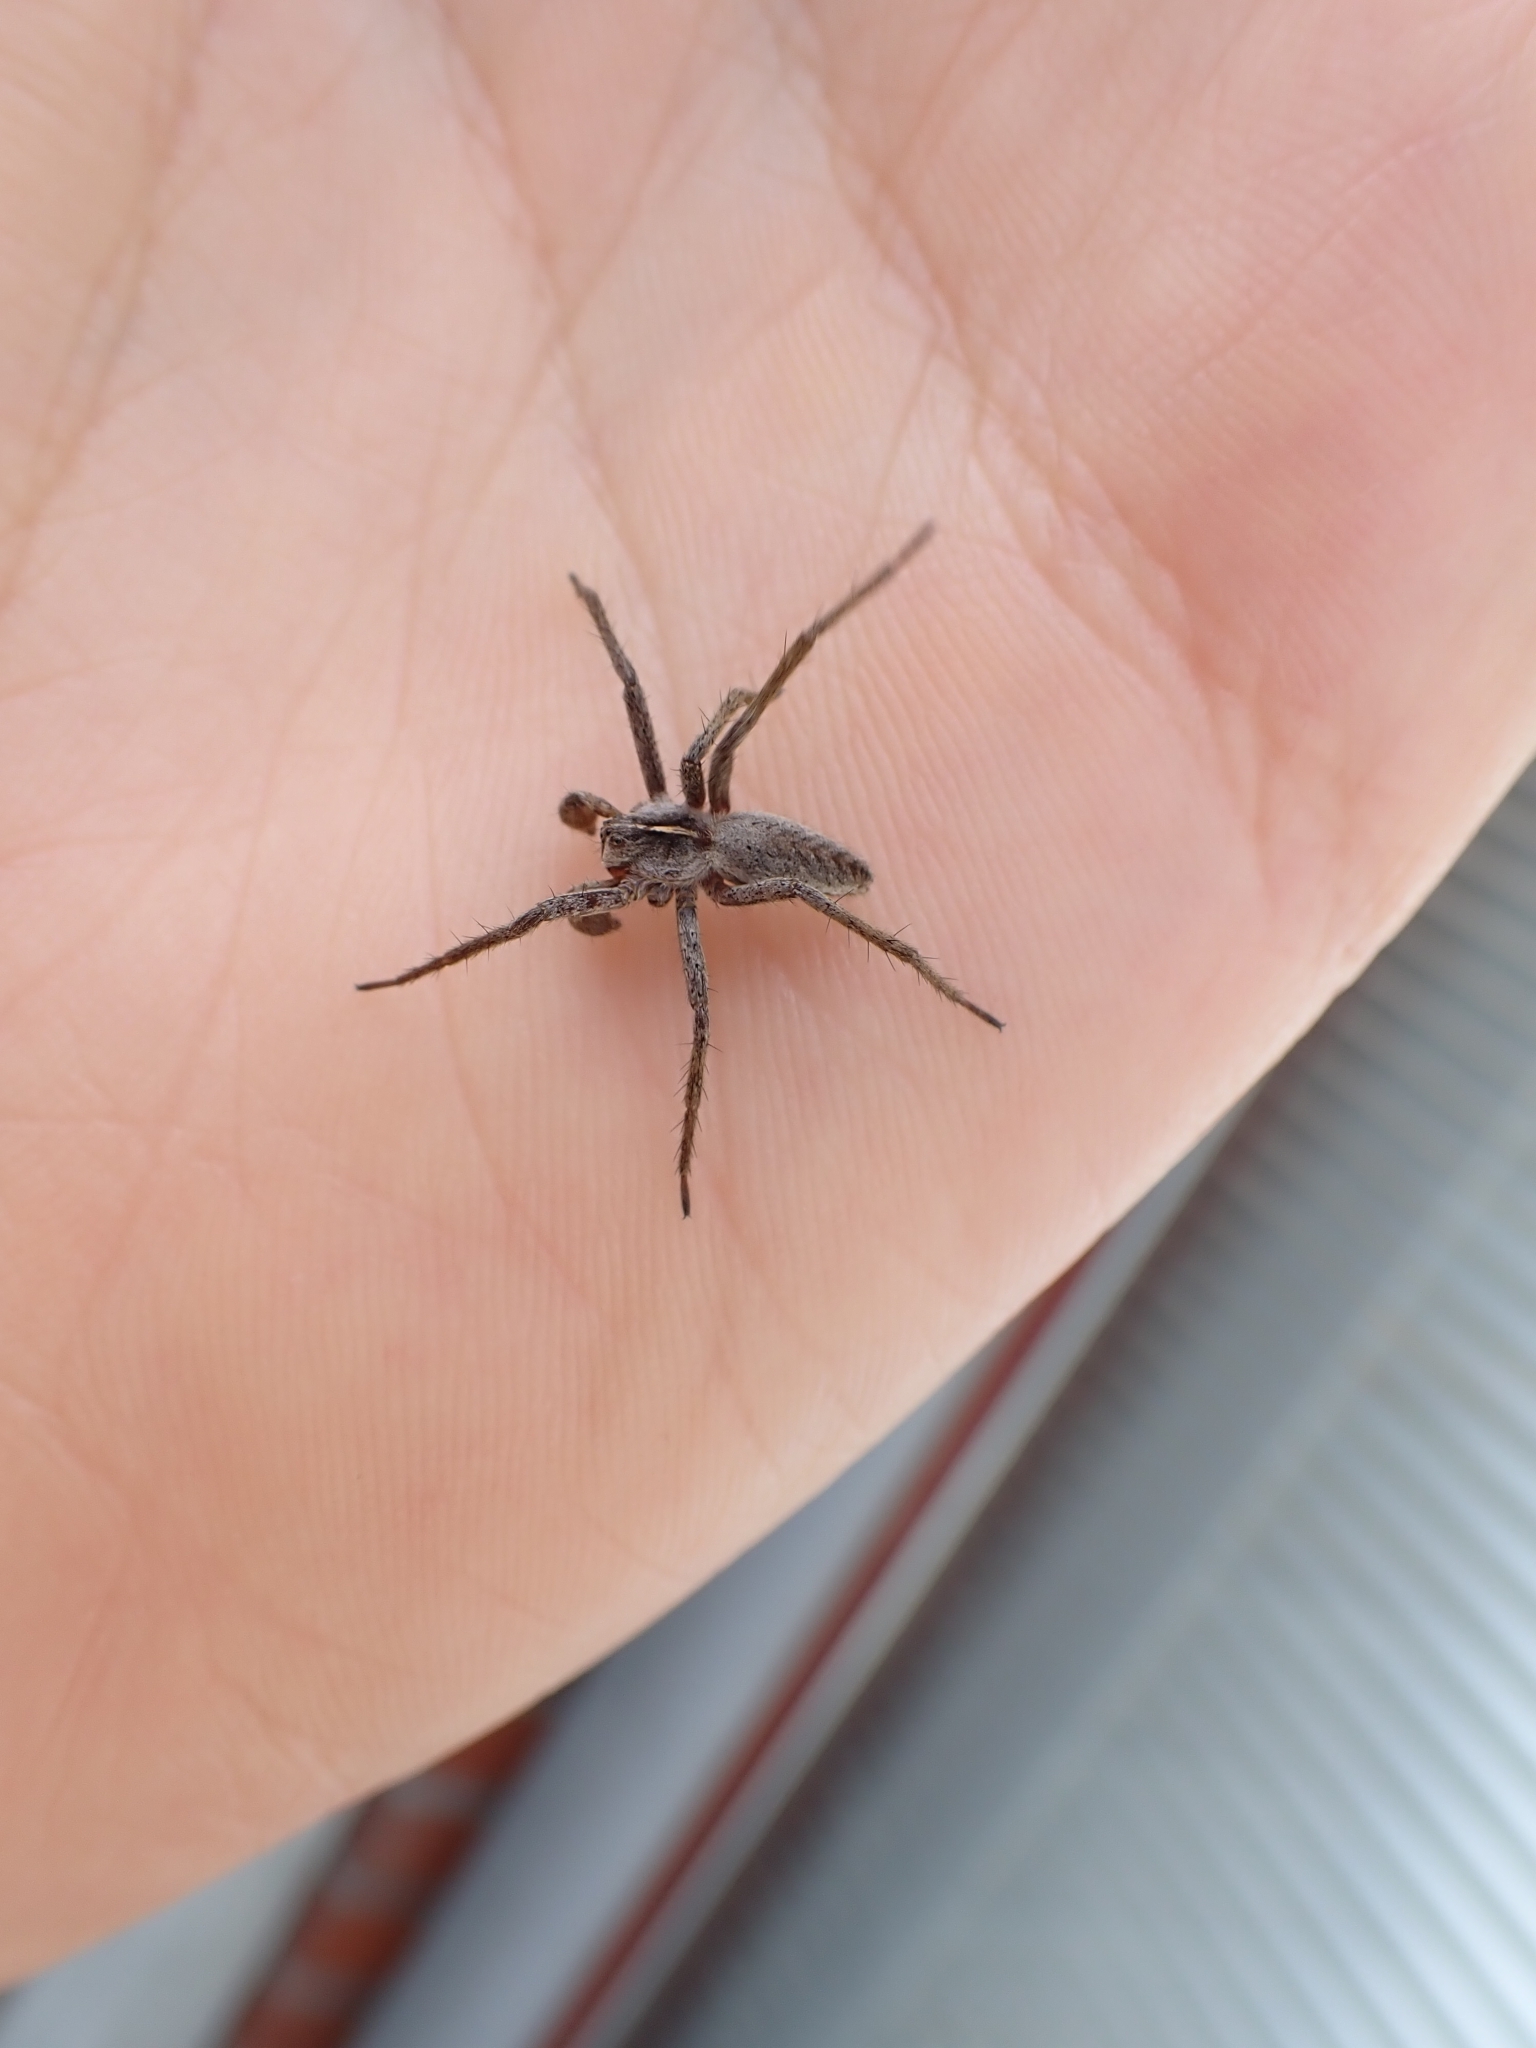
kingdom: Animalia
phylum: Arthropoda
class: Arachnida
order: Araneae
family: Pisauridae
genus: Pisaura
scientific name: Pisaura mirabilis
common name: Tent spider
